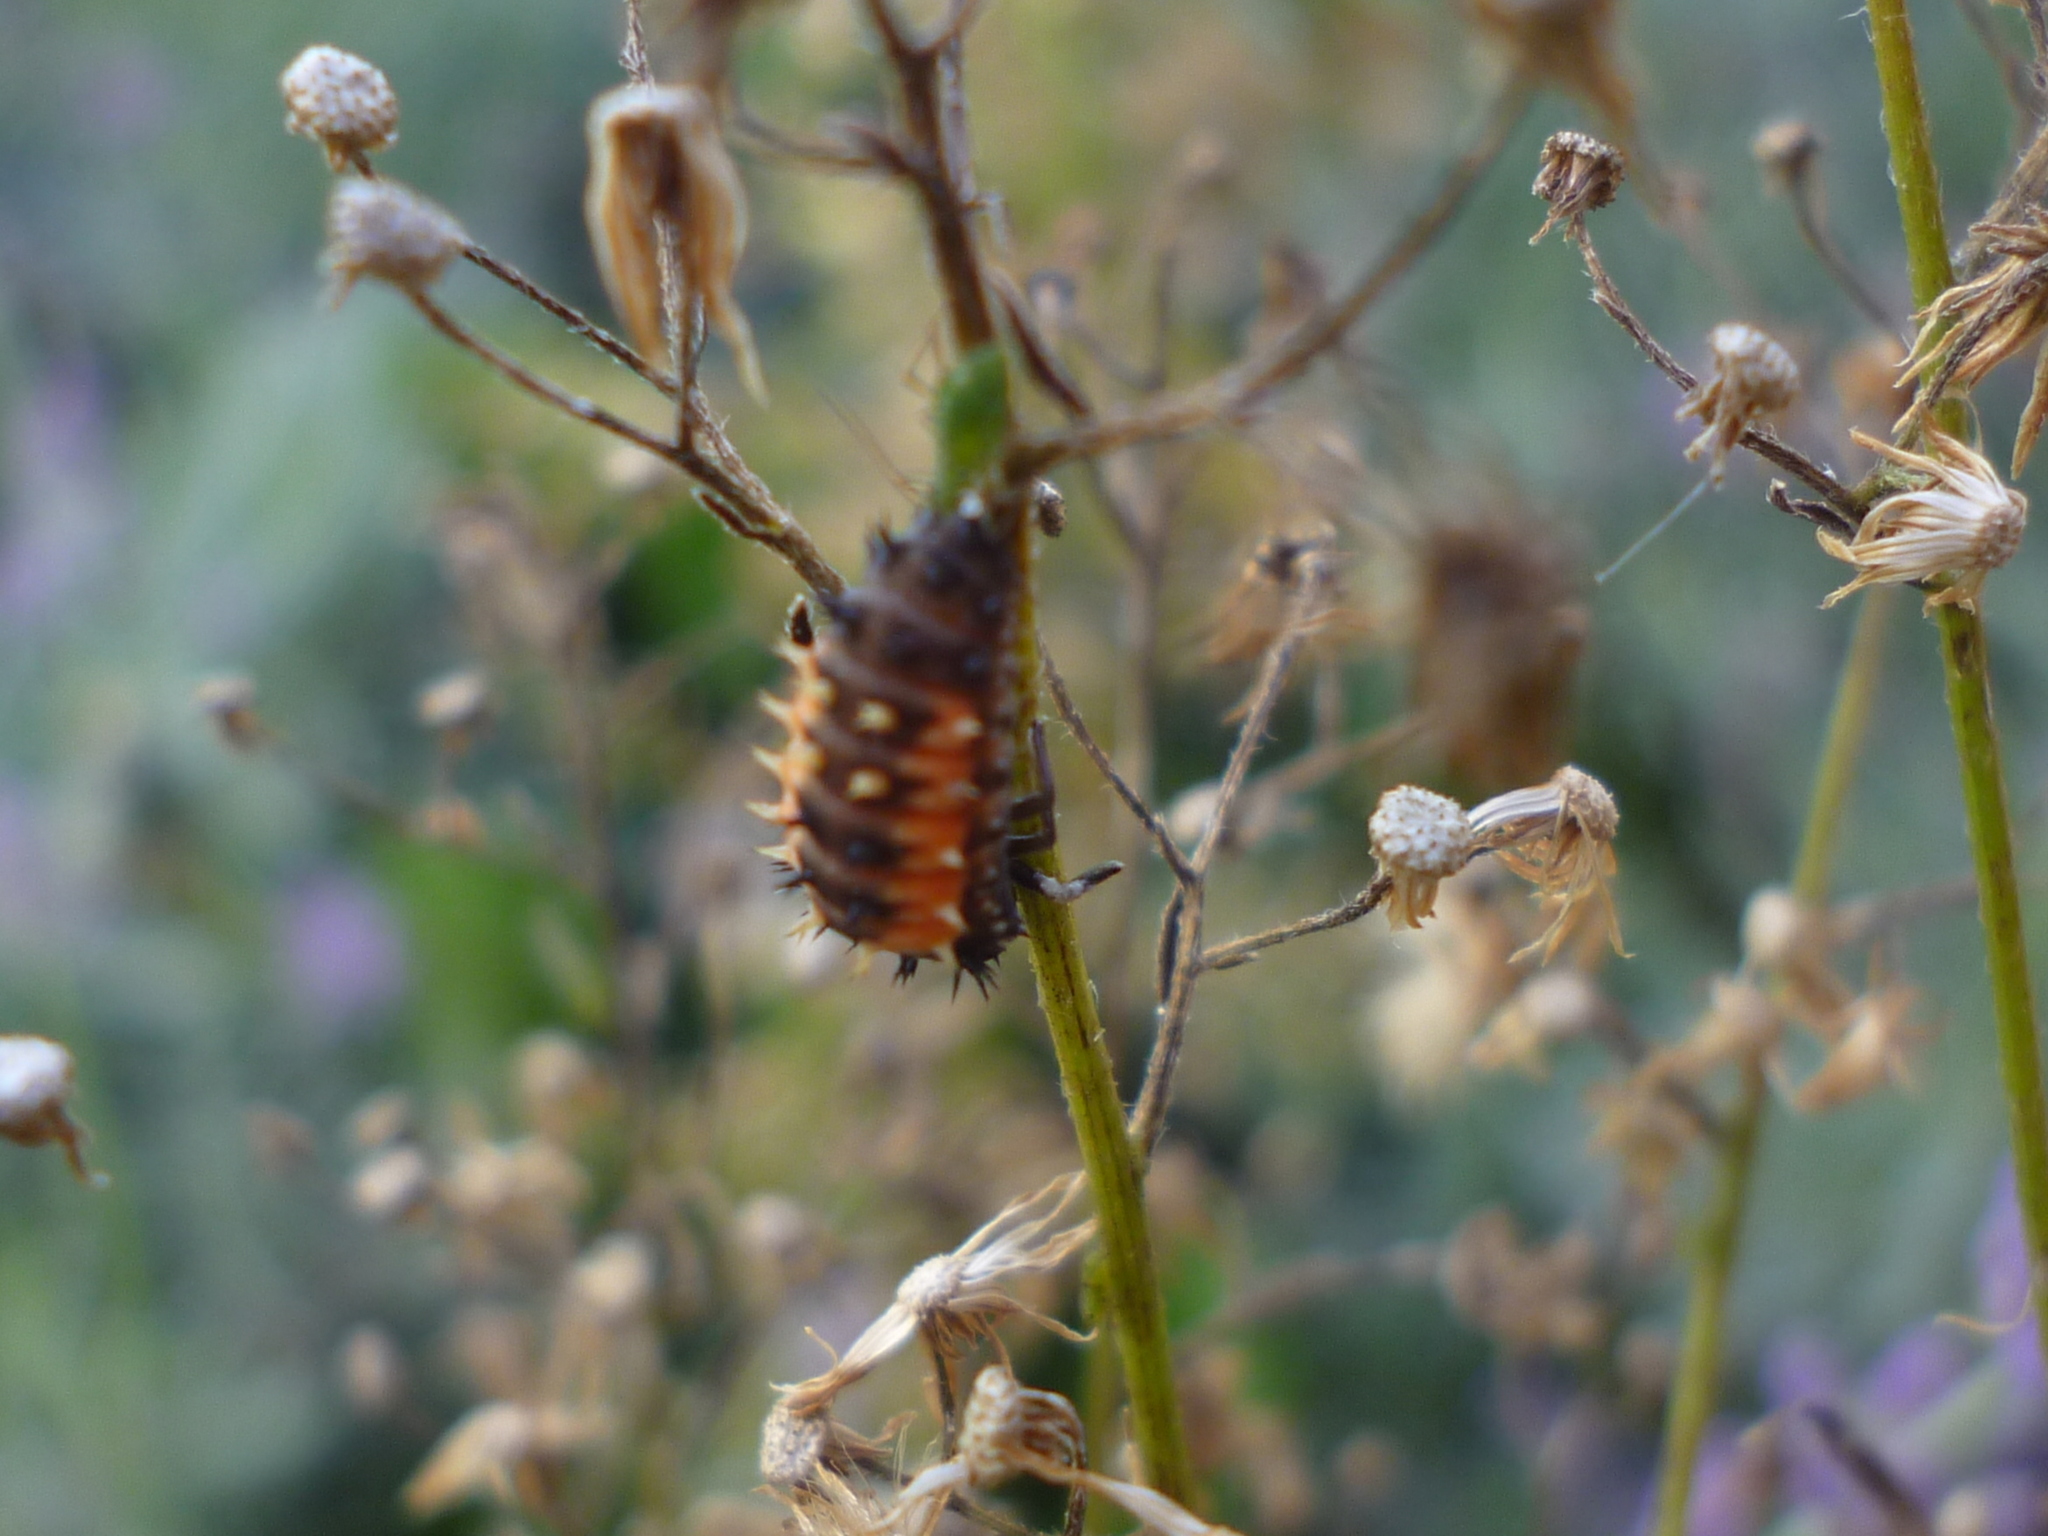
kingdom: Animalia
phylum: Arthropoda
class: Insecta
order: Coleoptera
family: Coccinellidae
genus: Harmonia
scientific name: Harmonia axyridis
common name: Harlequin ladybird
